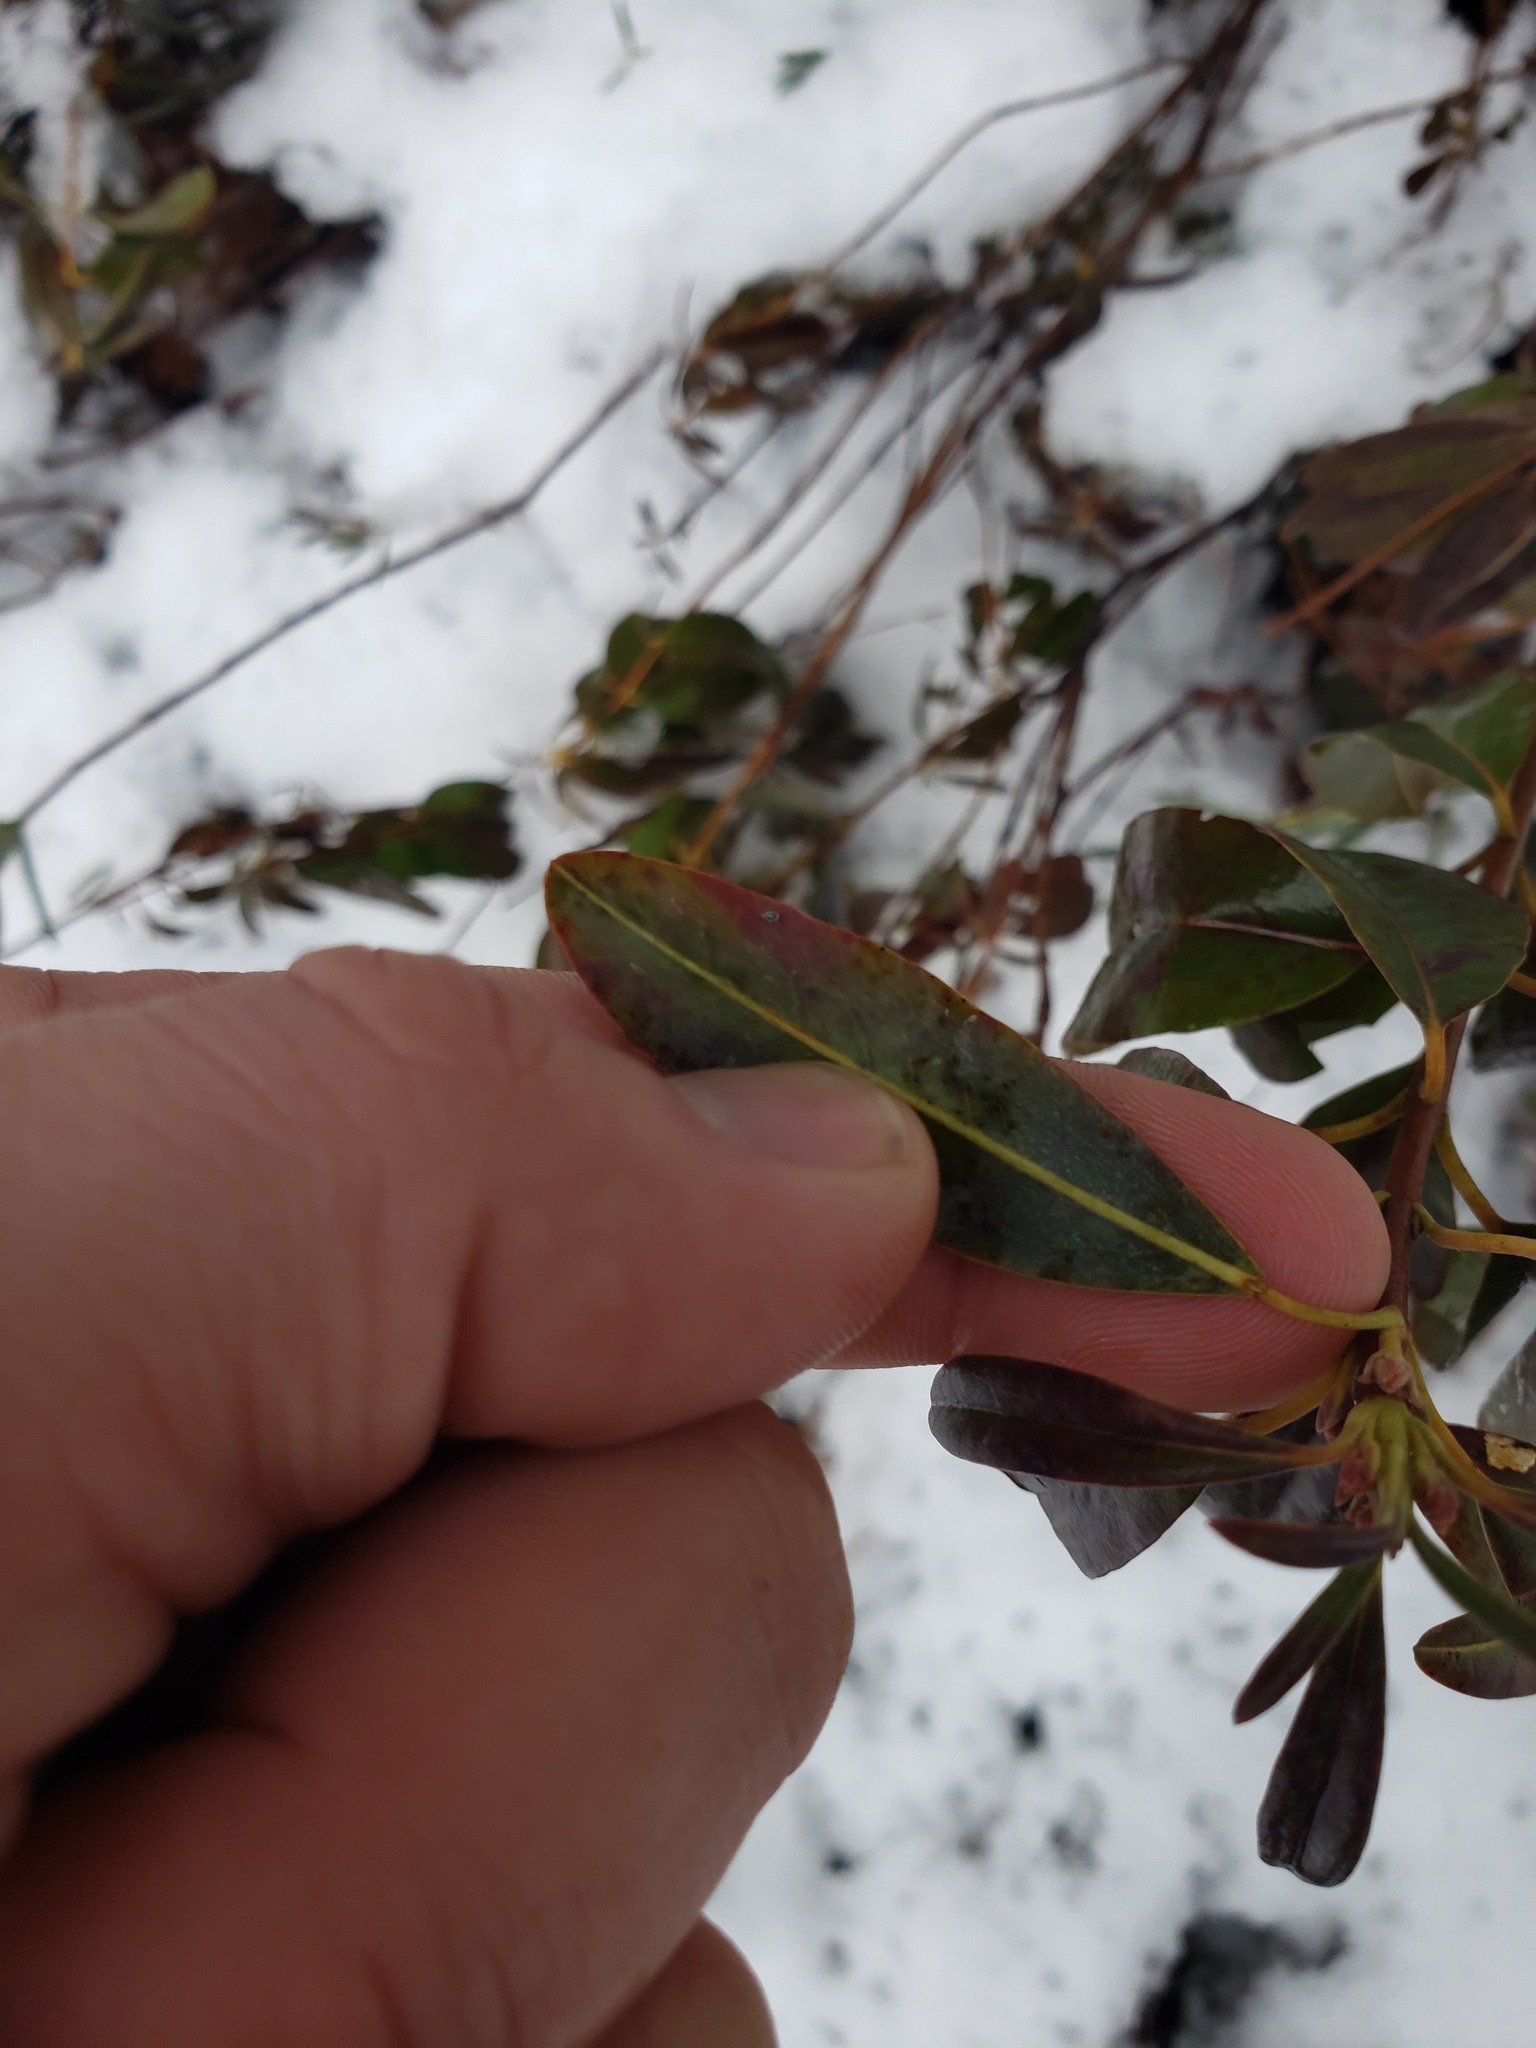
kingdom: Plantae
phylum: Tracheophyta
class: Magnoliopsida
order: Ericales
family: Ericaceae
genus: Kalmia
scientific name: Kalmia angustifolia
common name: Sheep-laurel
